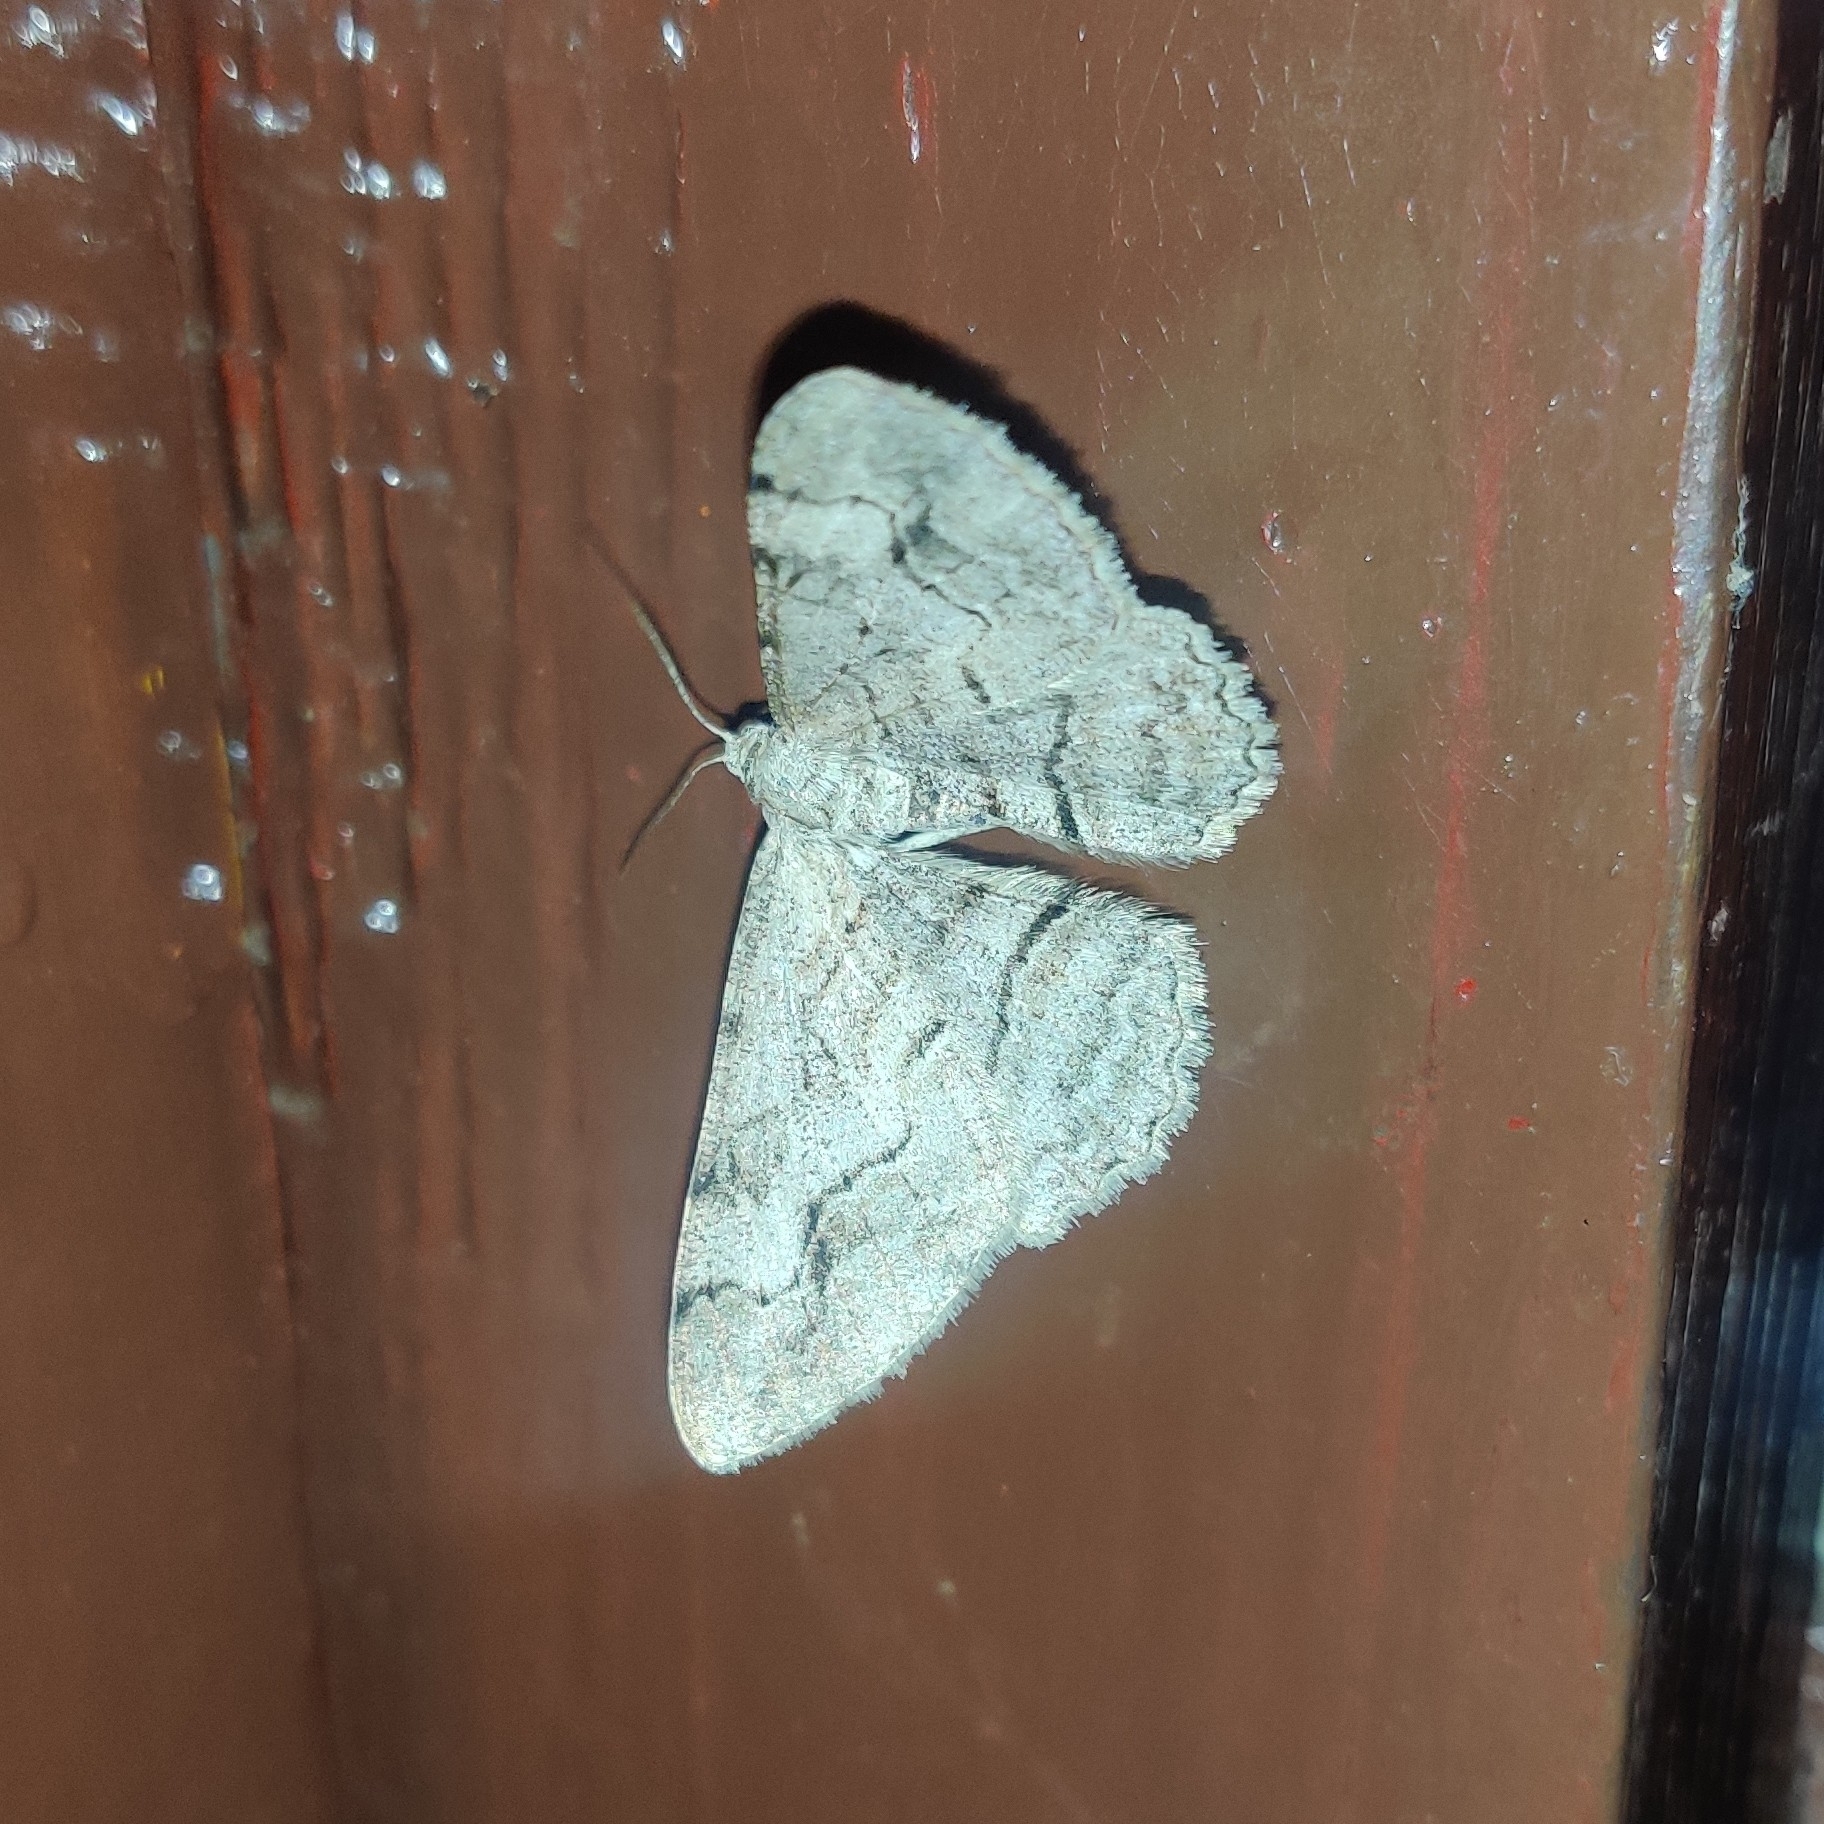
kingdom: Animalia
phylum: Arthropoda
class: Insecta
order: Lepidoptera
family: Geometridae
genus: Alcis
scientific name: Alcis paghmana
